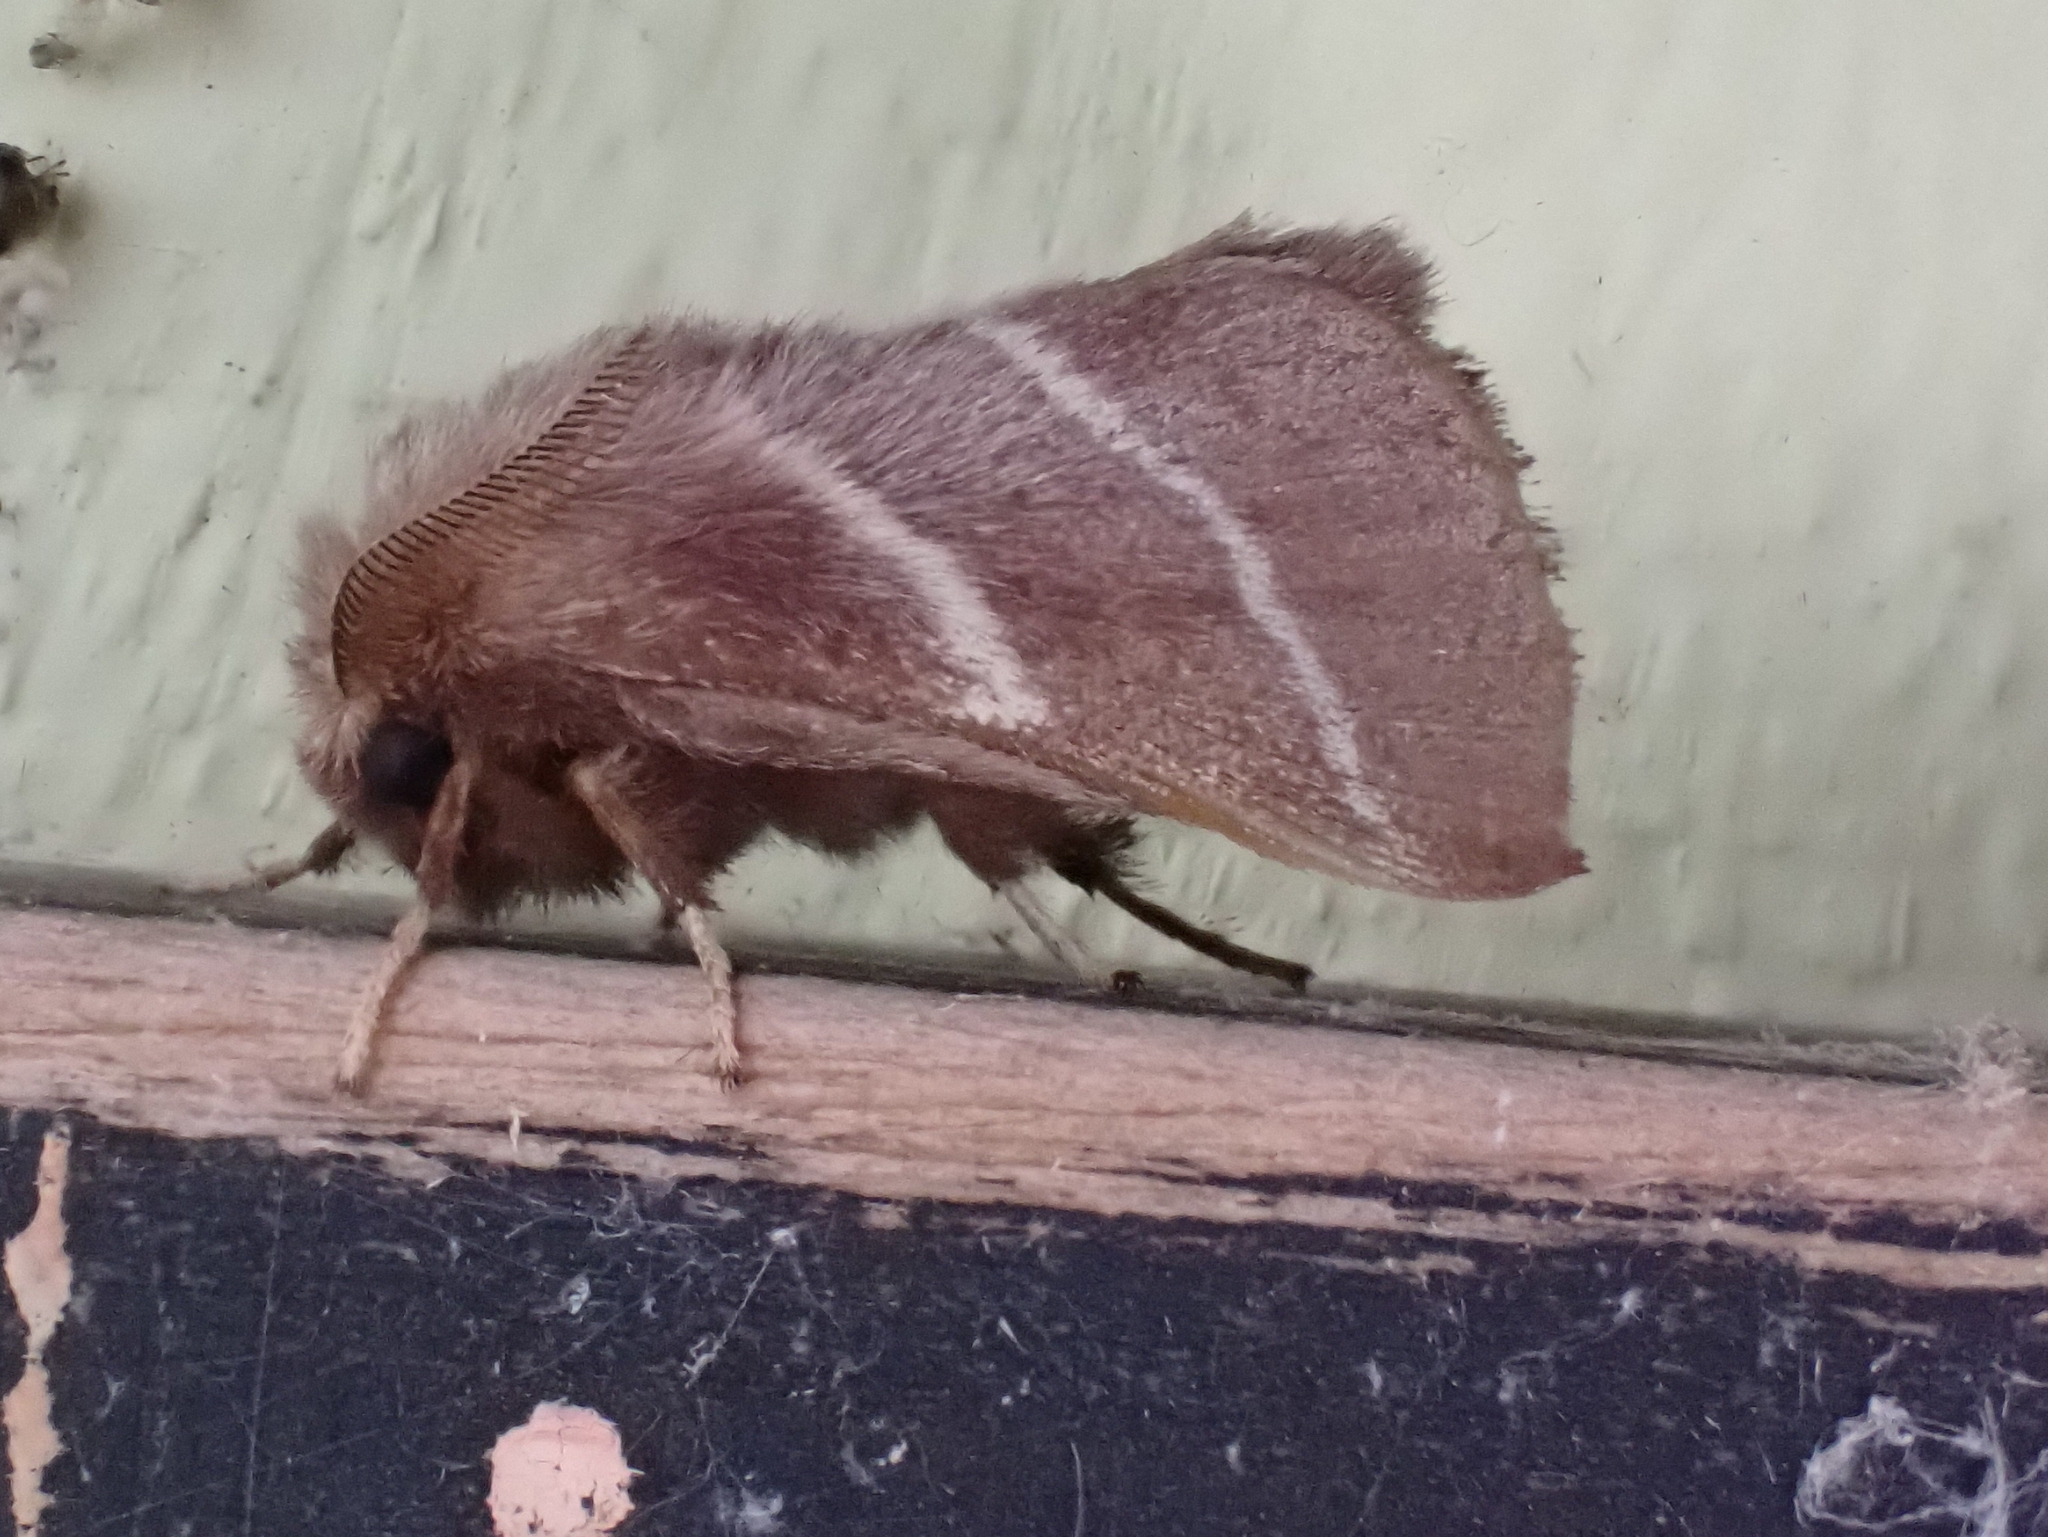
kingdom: Animalia
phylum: Arthropoda
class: Insecta
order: Lepidoptera
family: Lasiocampidae
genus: Malacosoma
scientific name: Malacosoma americana
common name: Eastern tent caterpillar moth
